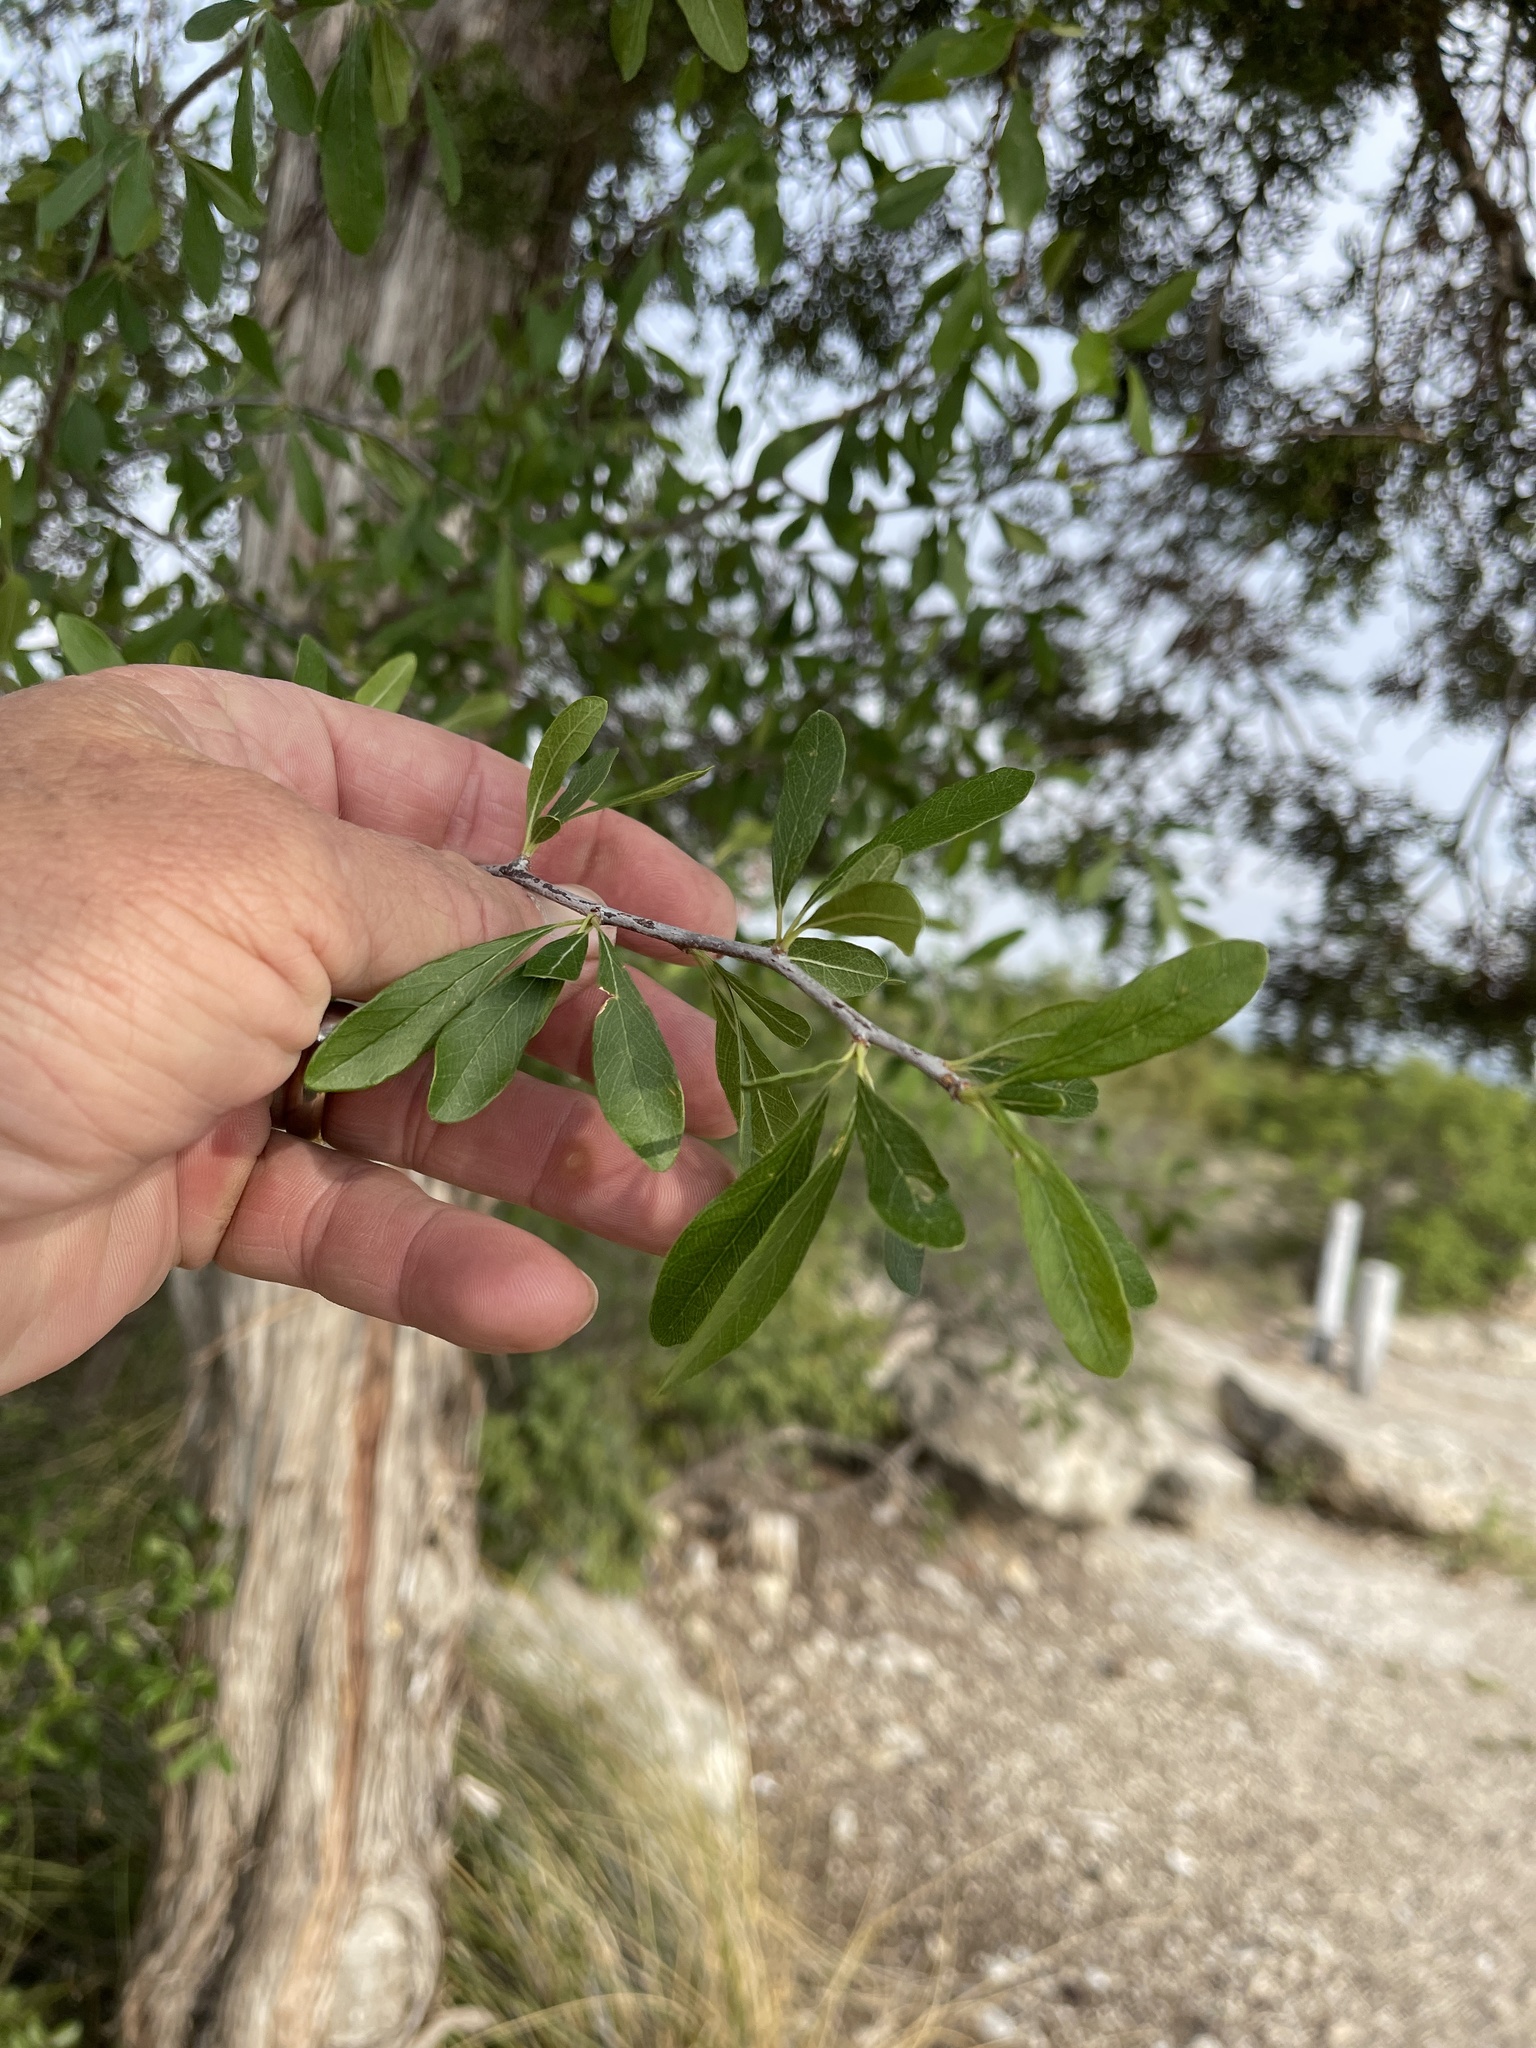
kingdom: Plantae
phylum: Tracheophyta
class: Magnoliopsida
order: Ericales
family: Sapotaceae
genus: Sideroxylon
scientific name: Sideroxylon lanuginosum
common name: Chittamwood
